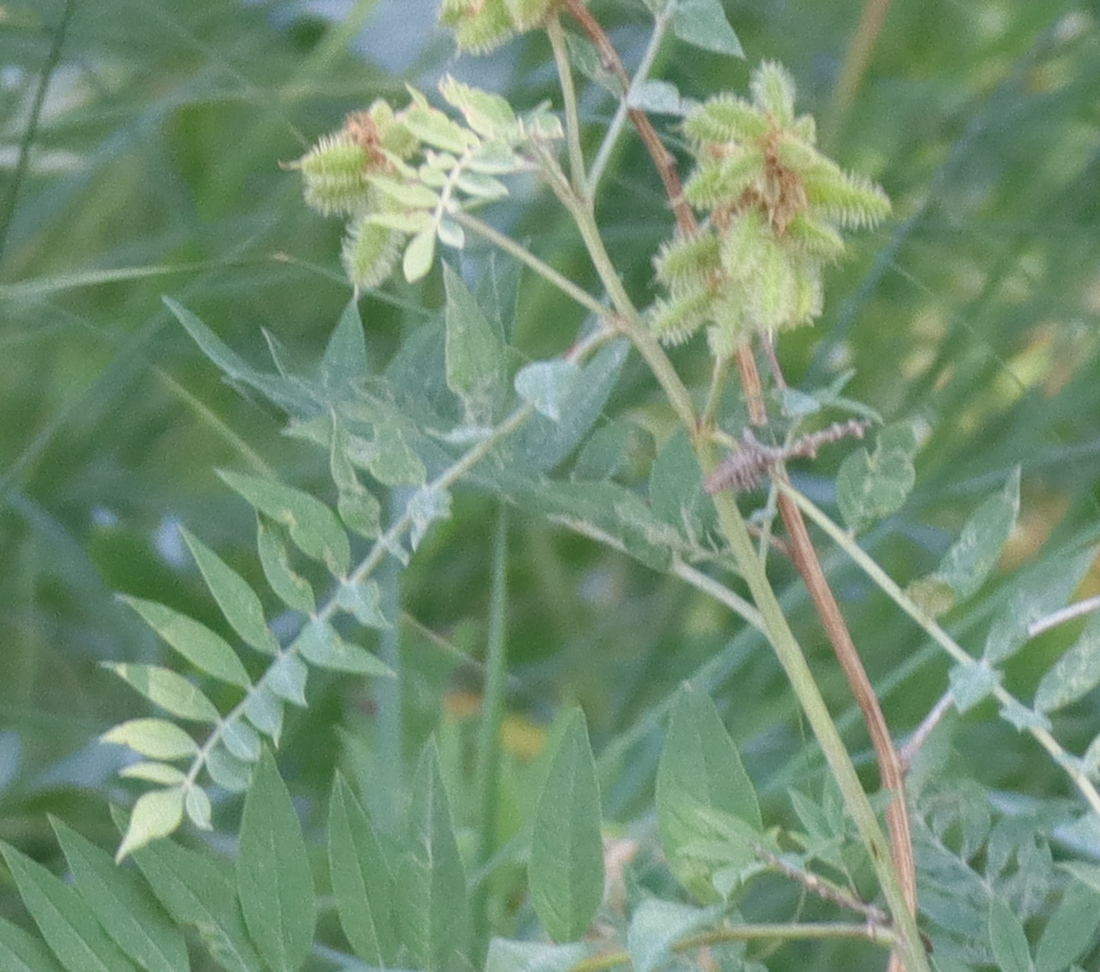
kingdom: Plantae
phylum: Tracheophyta
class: Magnoliopsida
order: Fabales
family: Fabaceae
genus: Glycyrrhiza
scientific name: Glycyrrhiza lepidota
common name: American liquorice
